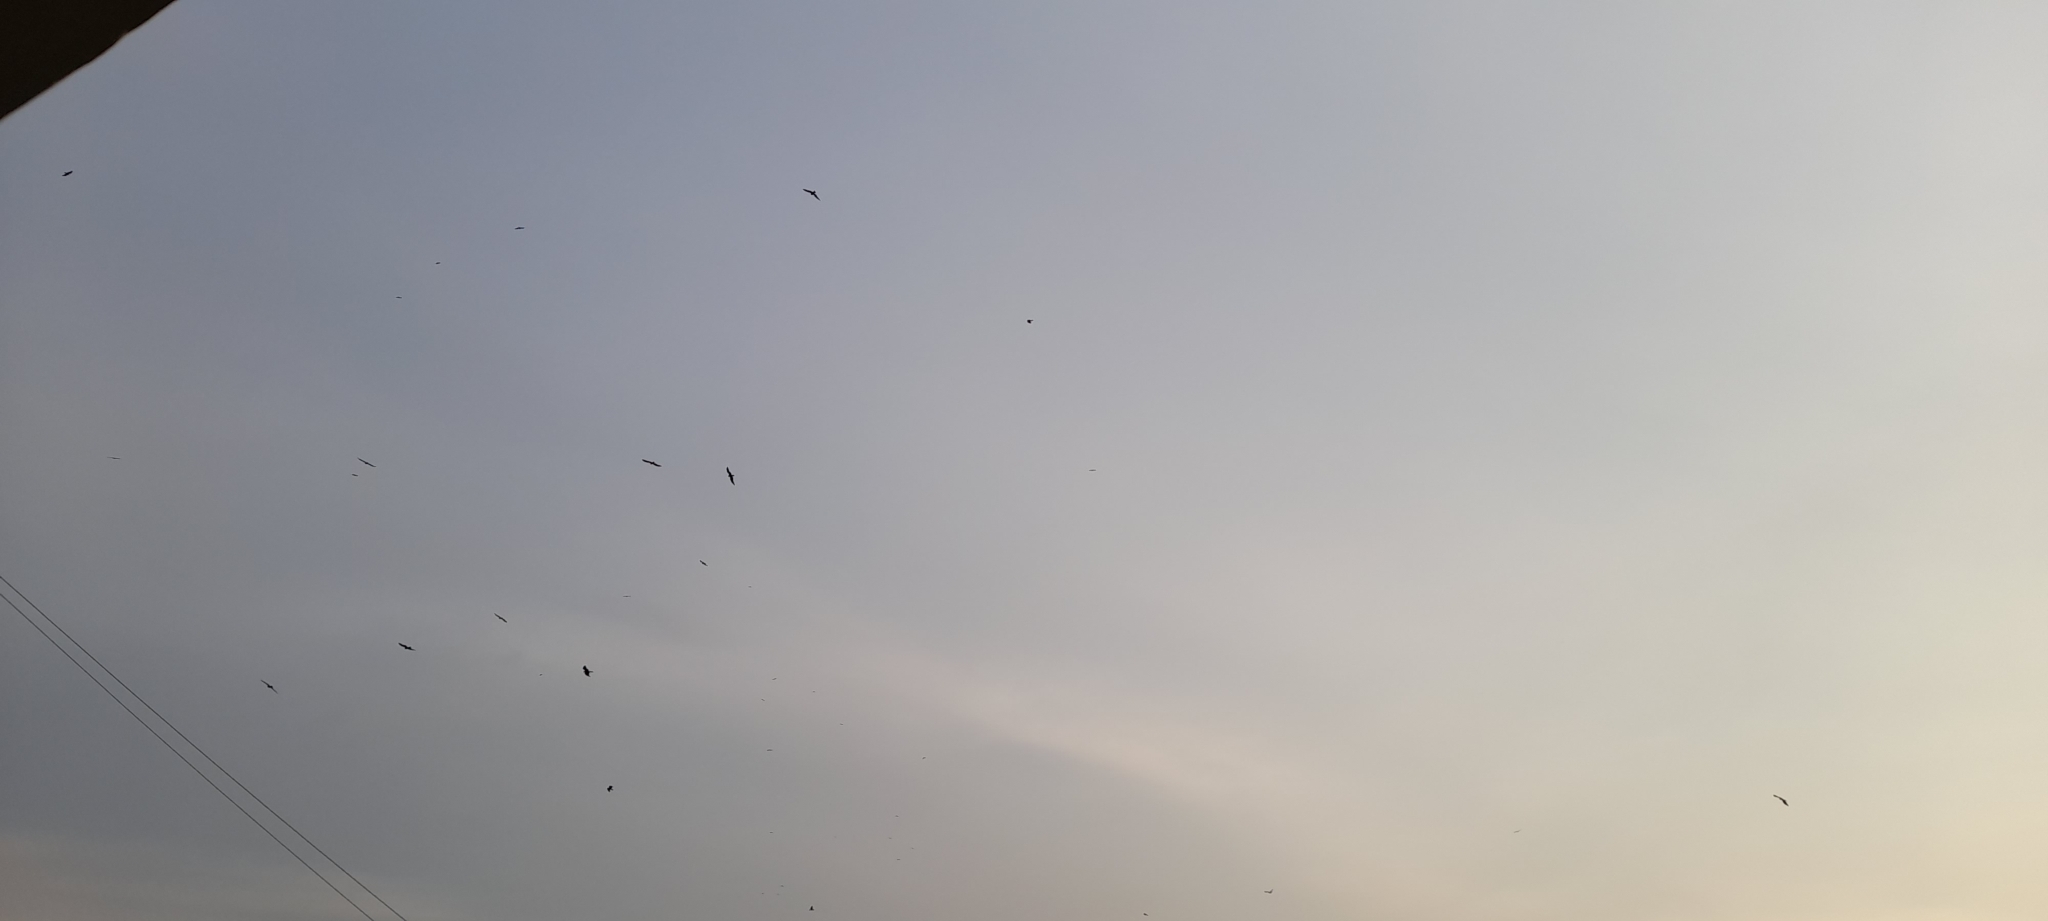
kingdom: Animalia
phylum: Chordata
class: Aves
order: Accipitriformes
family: Accipitridae
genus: Milvus
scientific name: Milvus migrans
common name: Black kite
